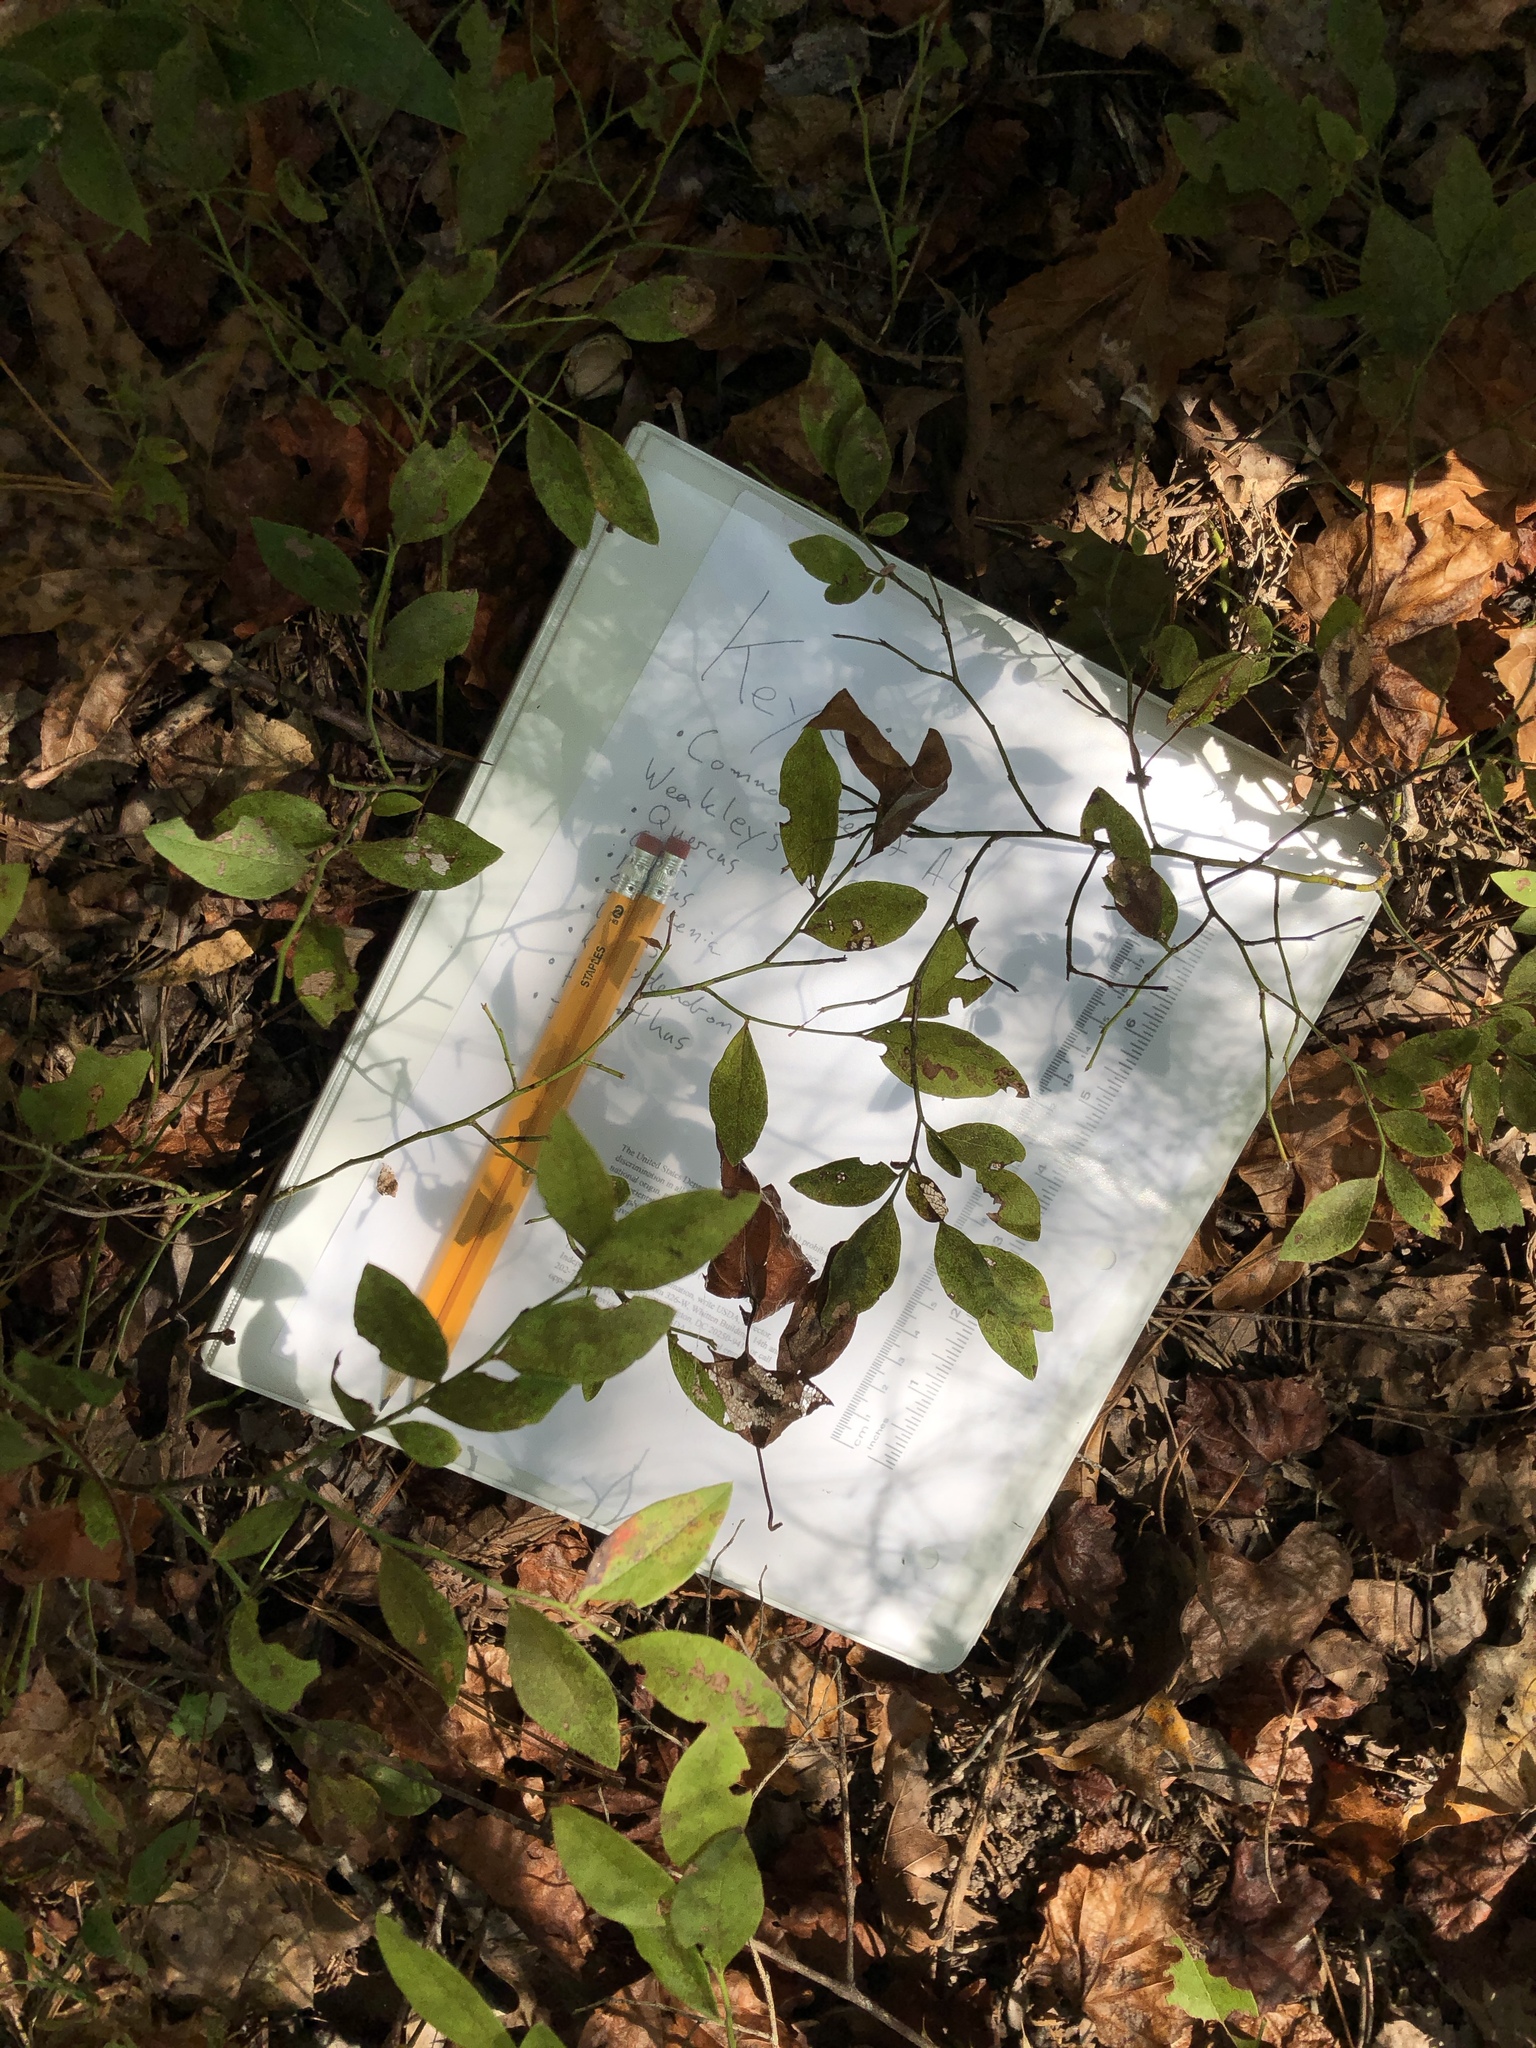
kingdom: Plantae
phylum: Tracheophyta
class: Magnoliopsida
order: Ericales
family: Ericaceae
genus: Vaccinium
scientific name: Vaccinium pallidum
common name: Blue ridge blueberry
